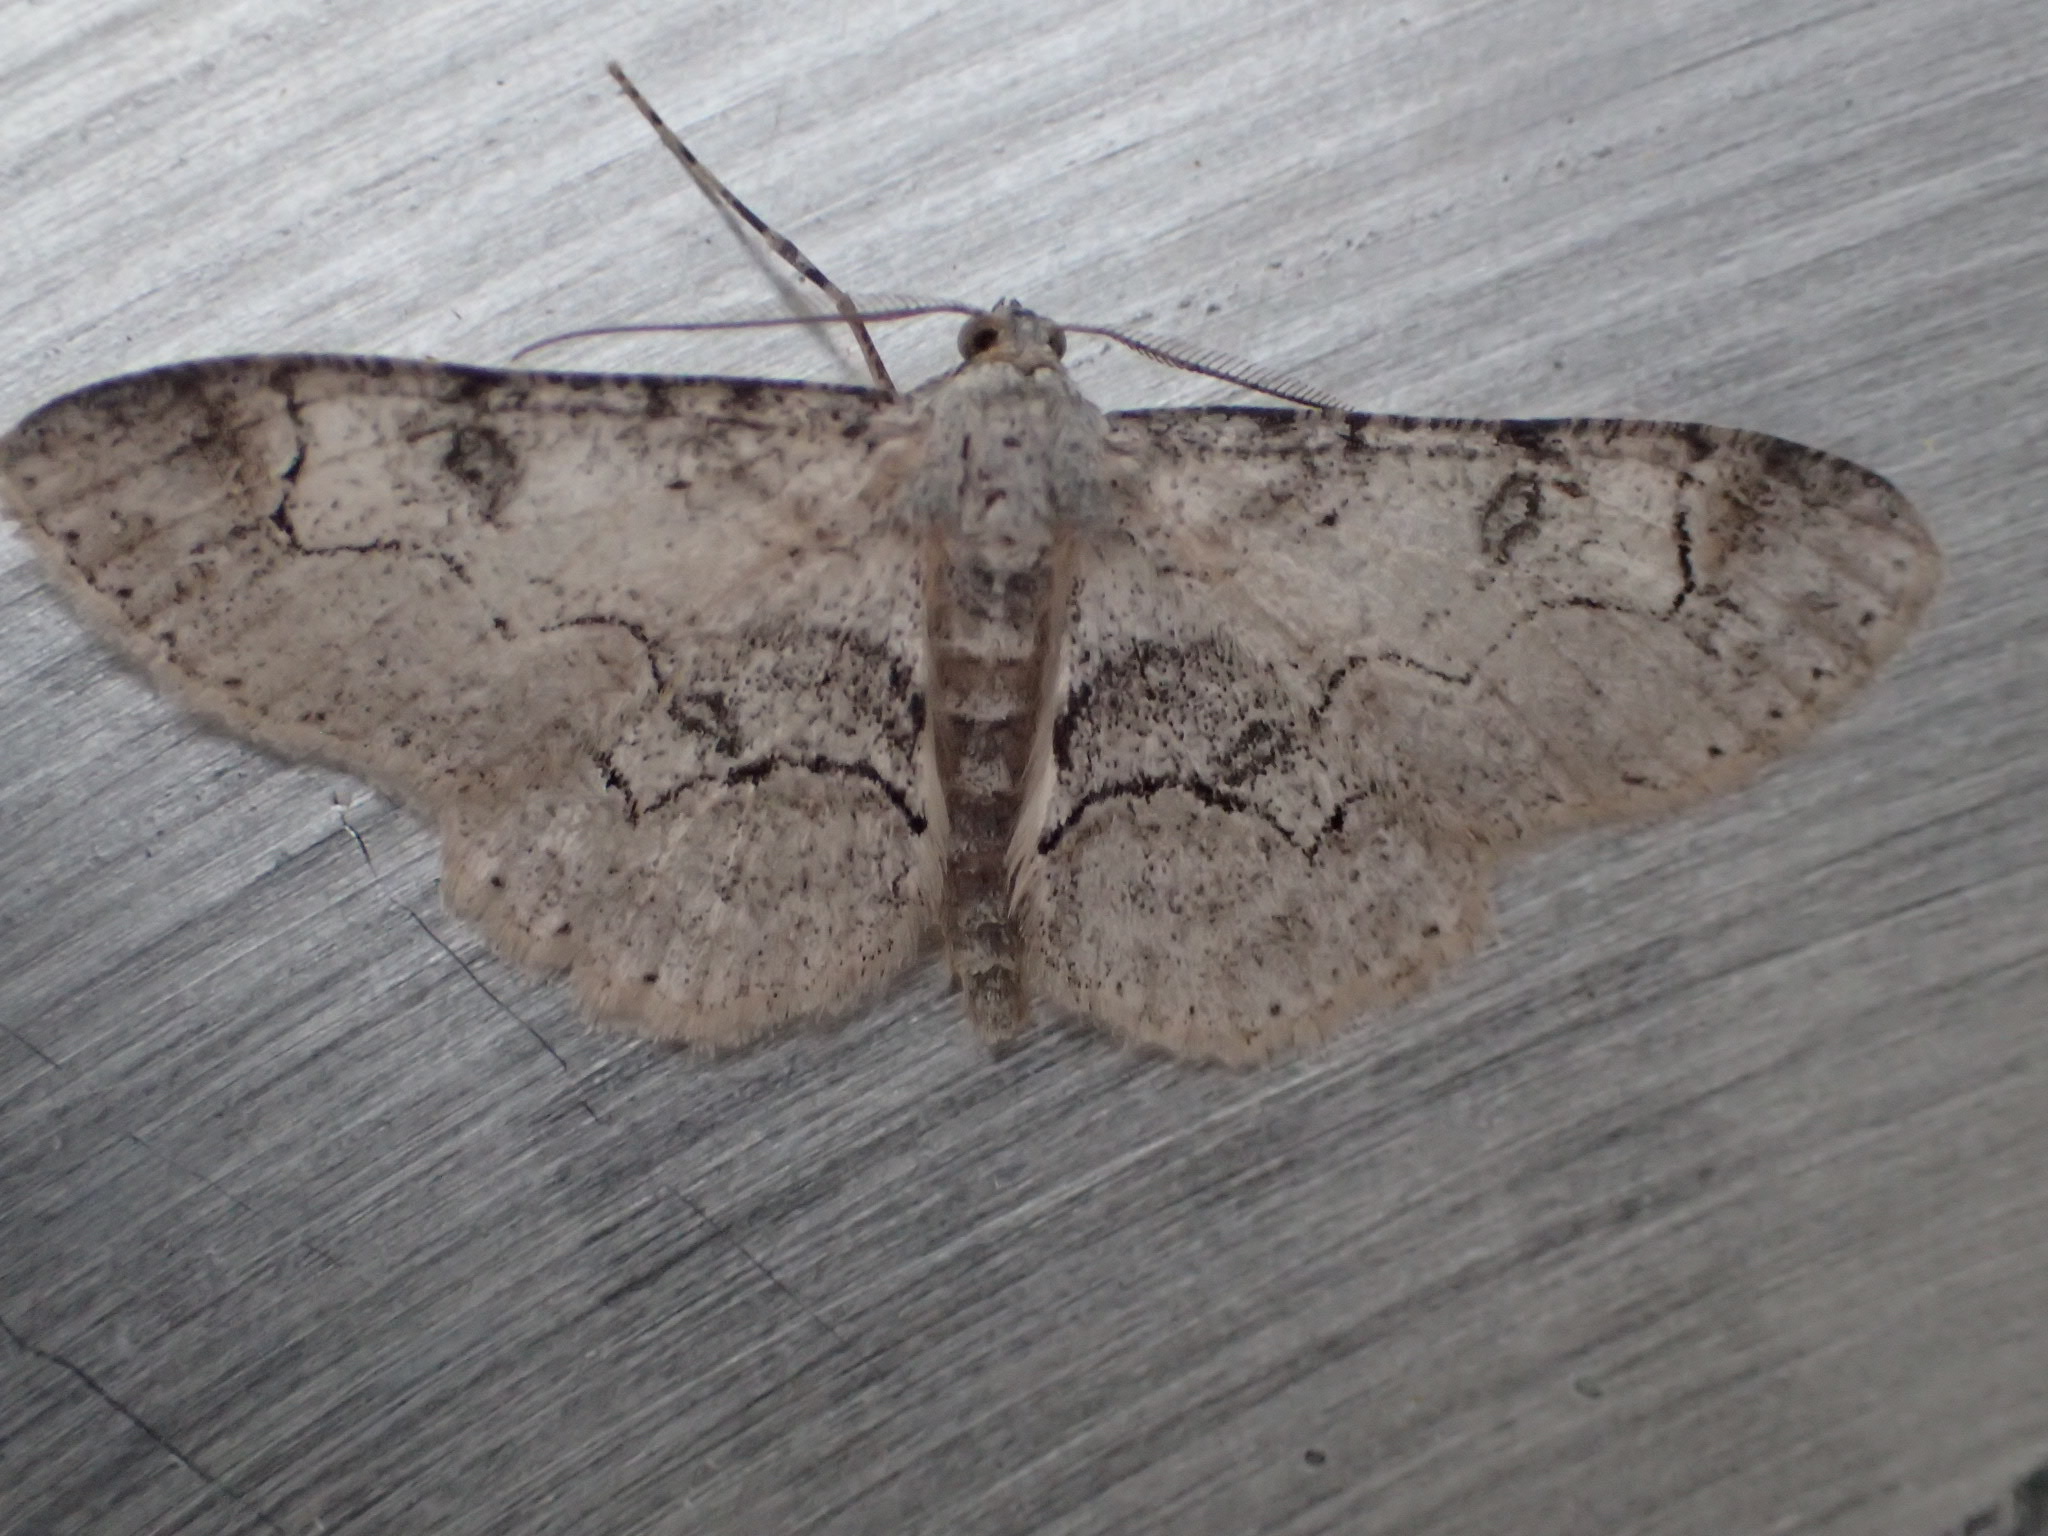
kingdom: Animalia
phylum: Arthropoda
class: Insecta
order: Lepidoptera
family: Geometridae
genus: Iridopsis
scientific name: Iridopsis larvaria
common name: Bent-line gray
